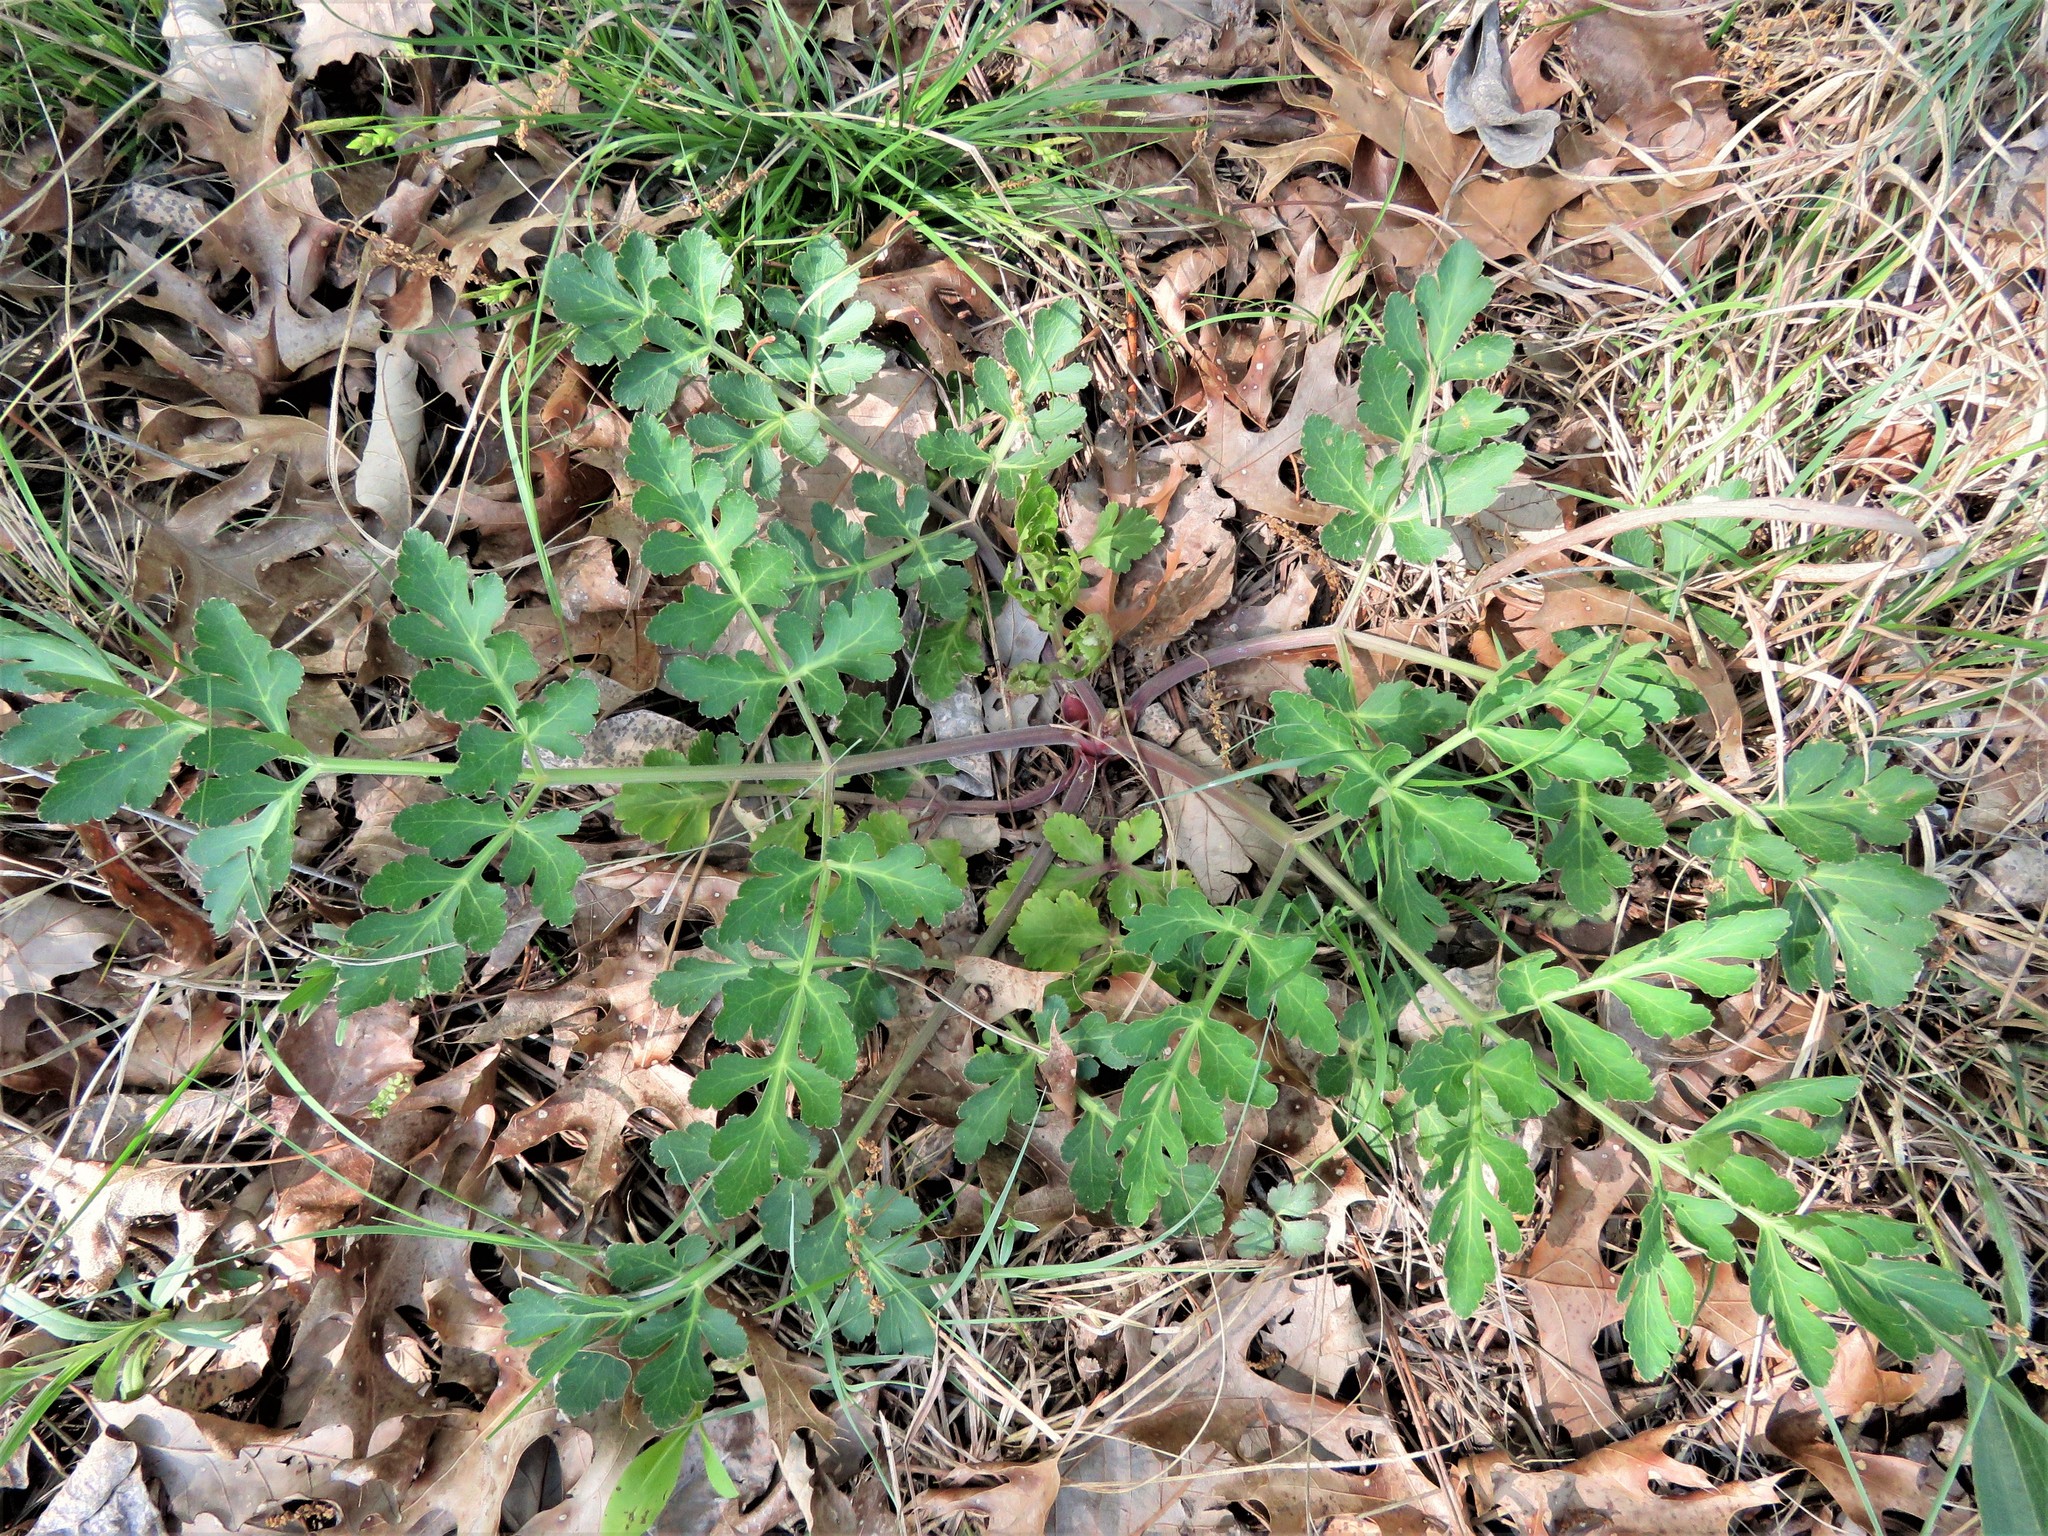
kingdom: Plantae
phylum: Tracheophyta
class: Magnoliopsida
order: Apiales
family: Apiaceae
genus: Polytaenia
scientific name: Polytaenia texana
